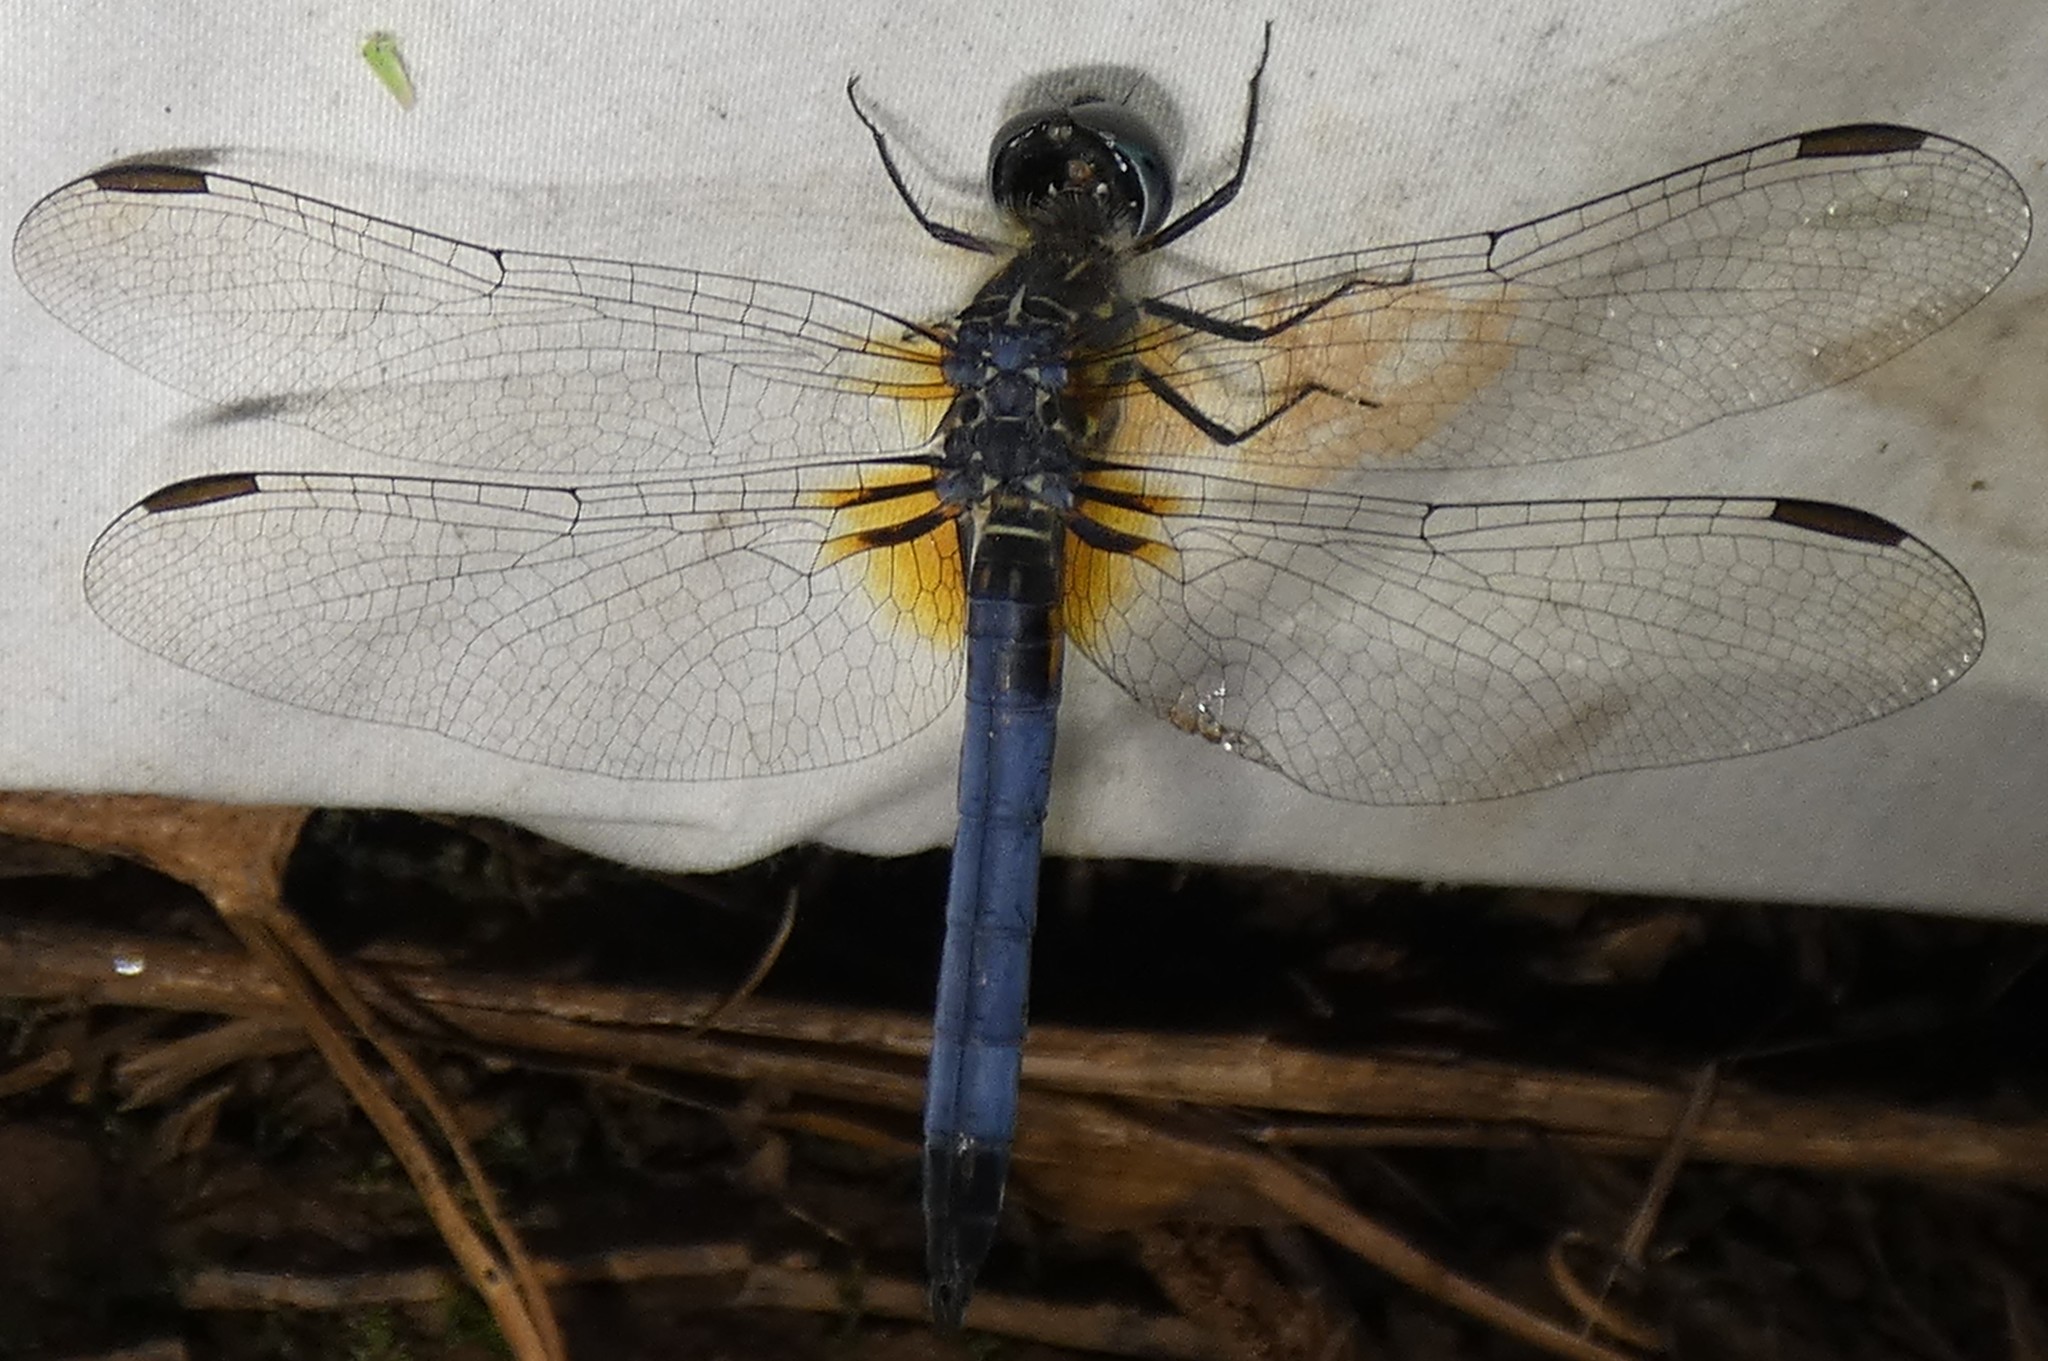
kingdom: Animalia
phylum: Arthropoda
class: Insecta
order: Odonata
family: Libellulidae
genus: Pachydiplax
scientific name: Pachydiplax longipennis
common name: Blue dasher
